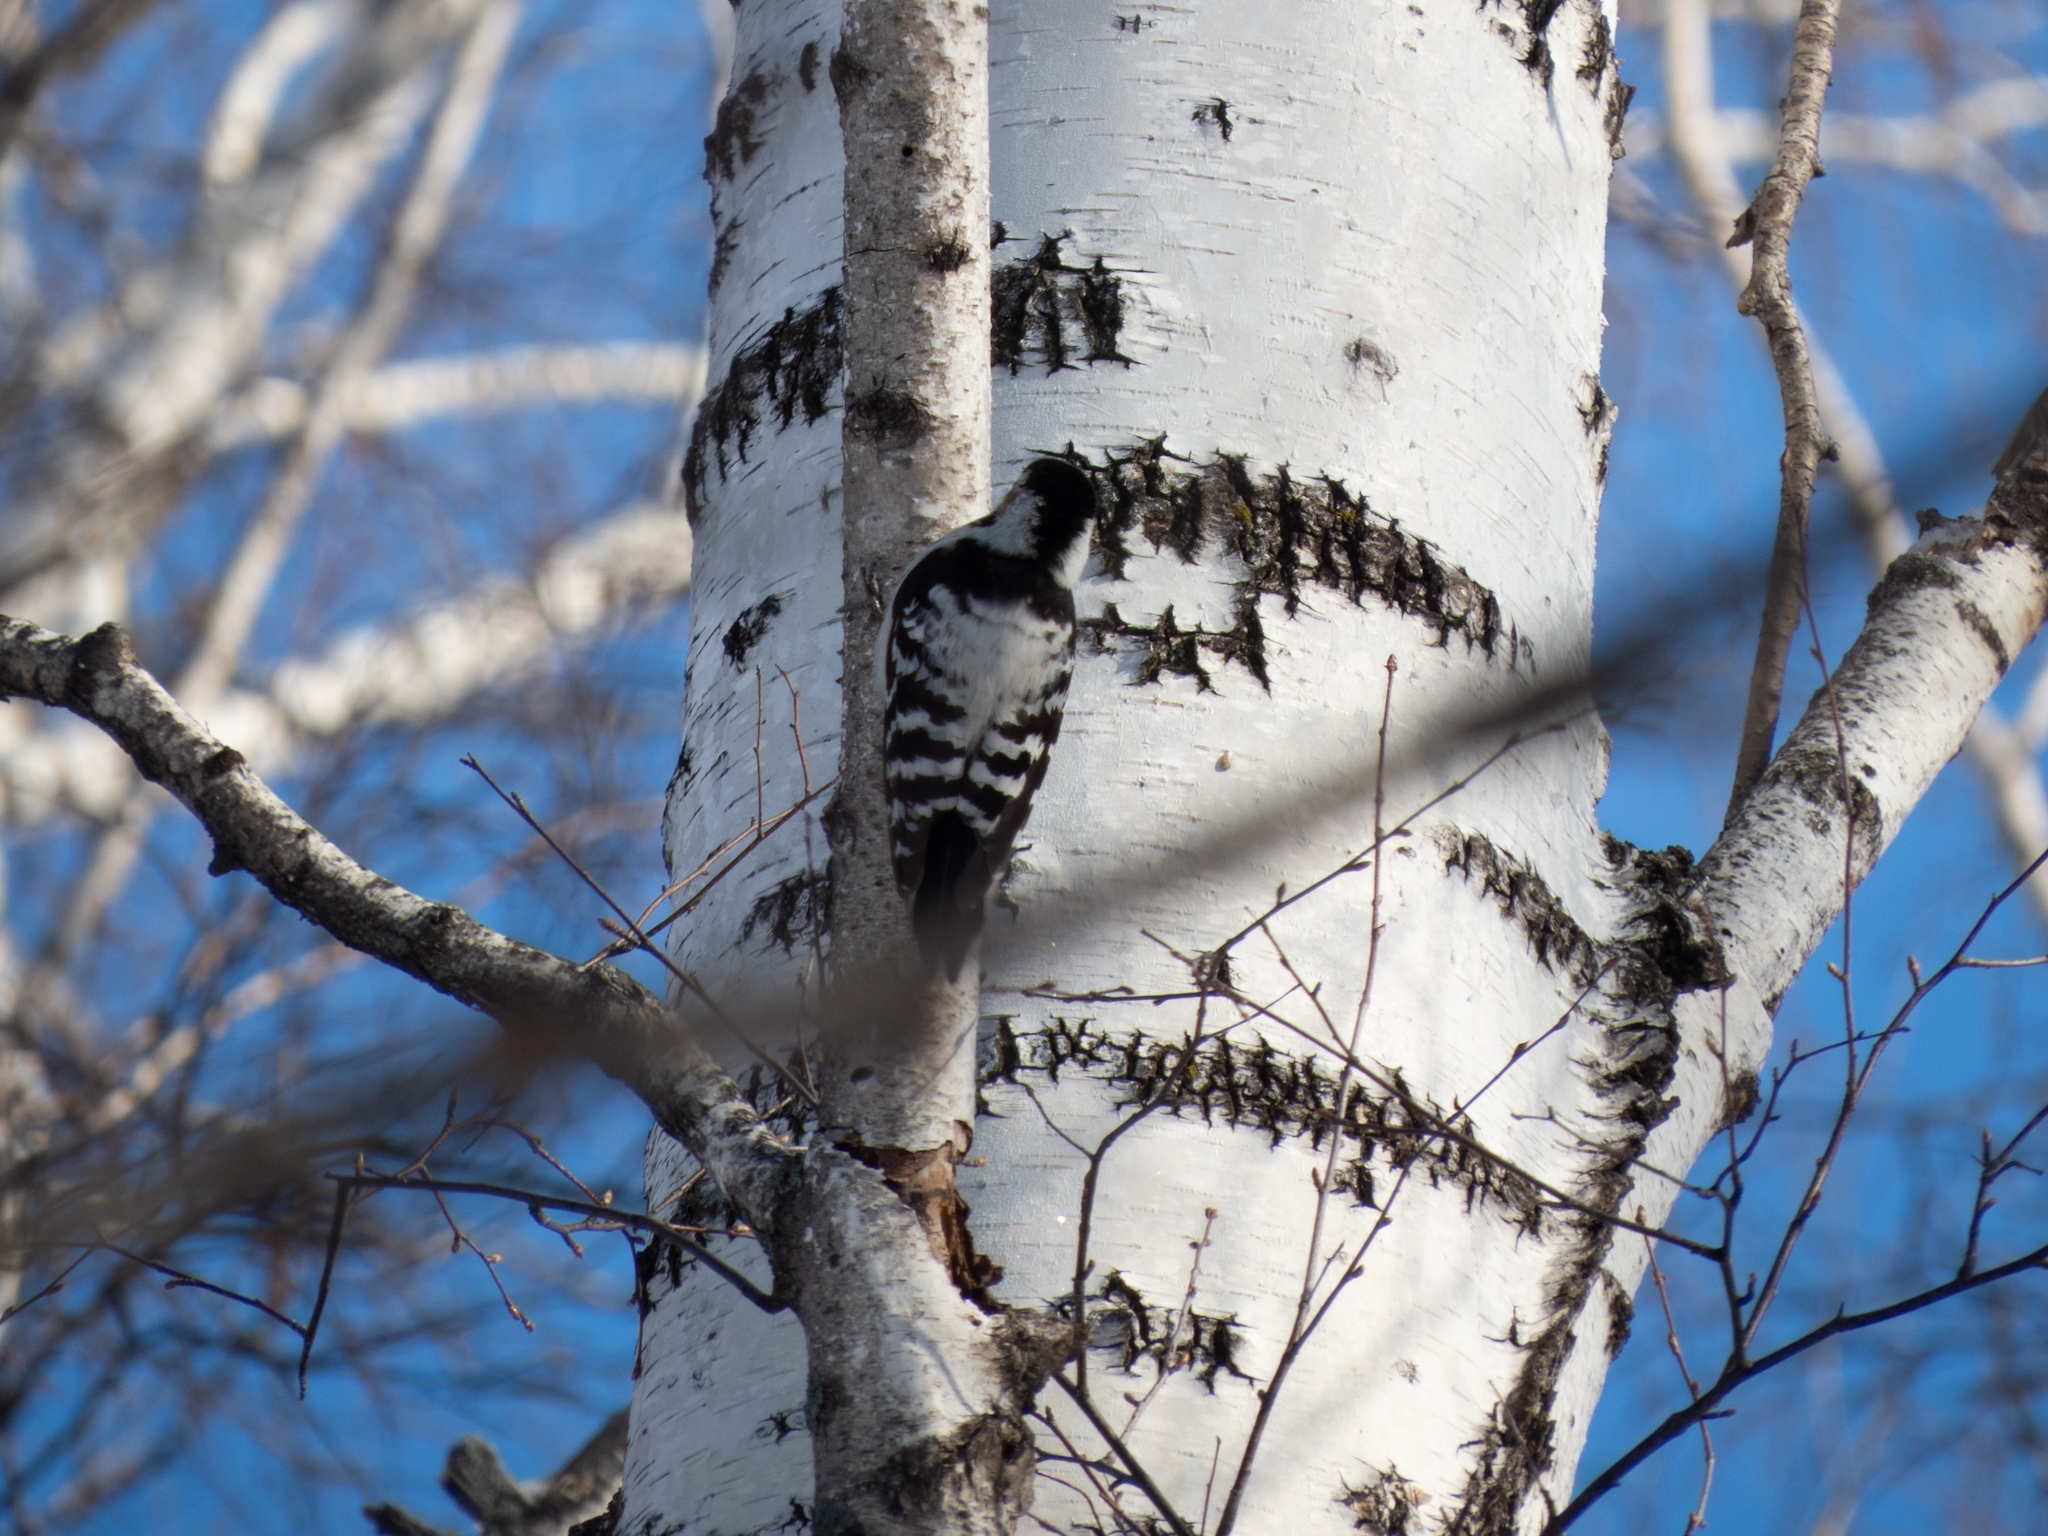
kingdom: Animalia
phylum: Chordata
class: Aves
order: Piciformes
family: Picidae
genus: Dryobates
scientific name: Dryobates minor
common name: Lesser spotted woodpecker
